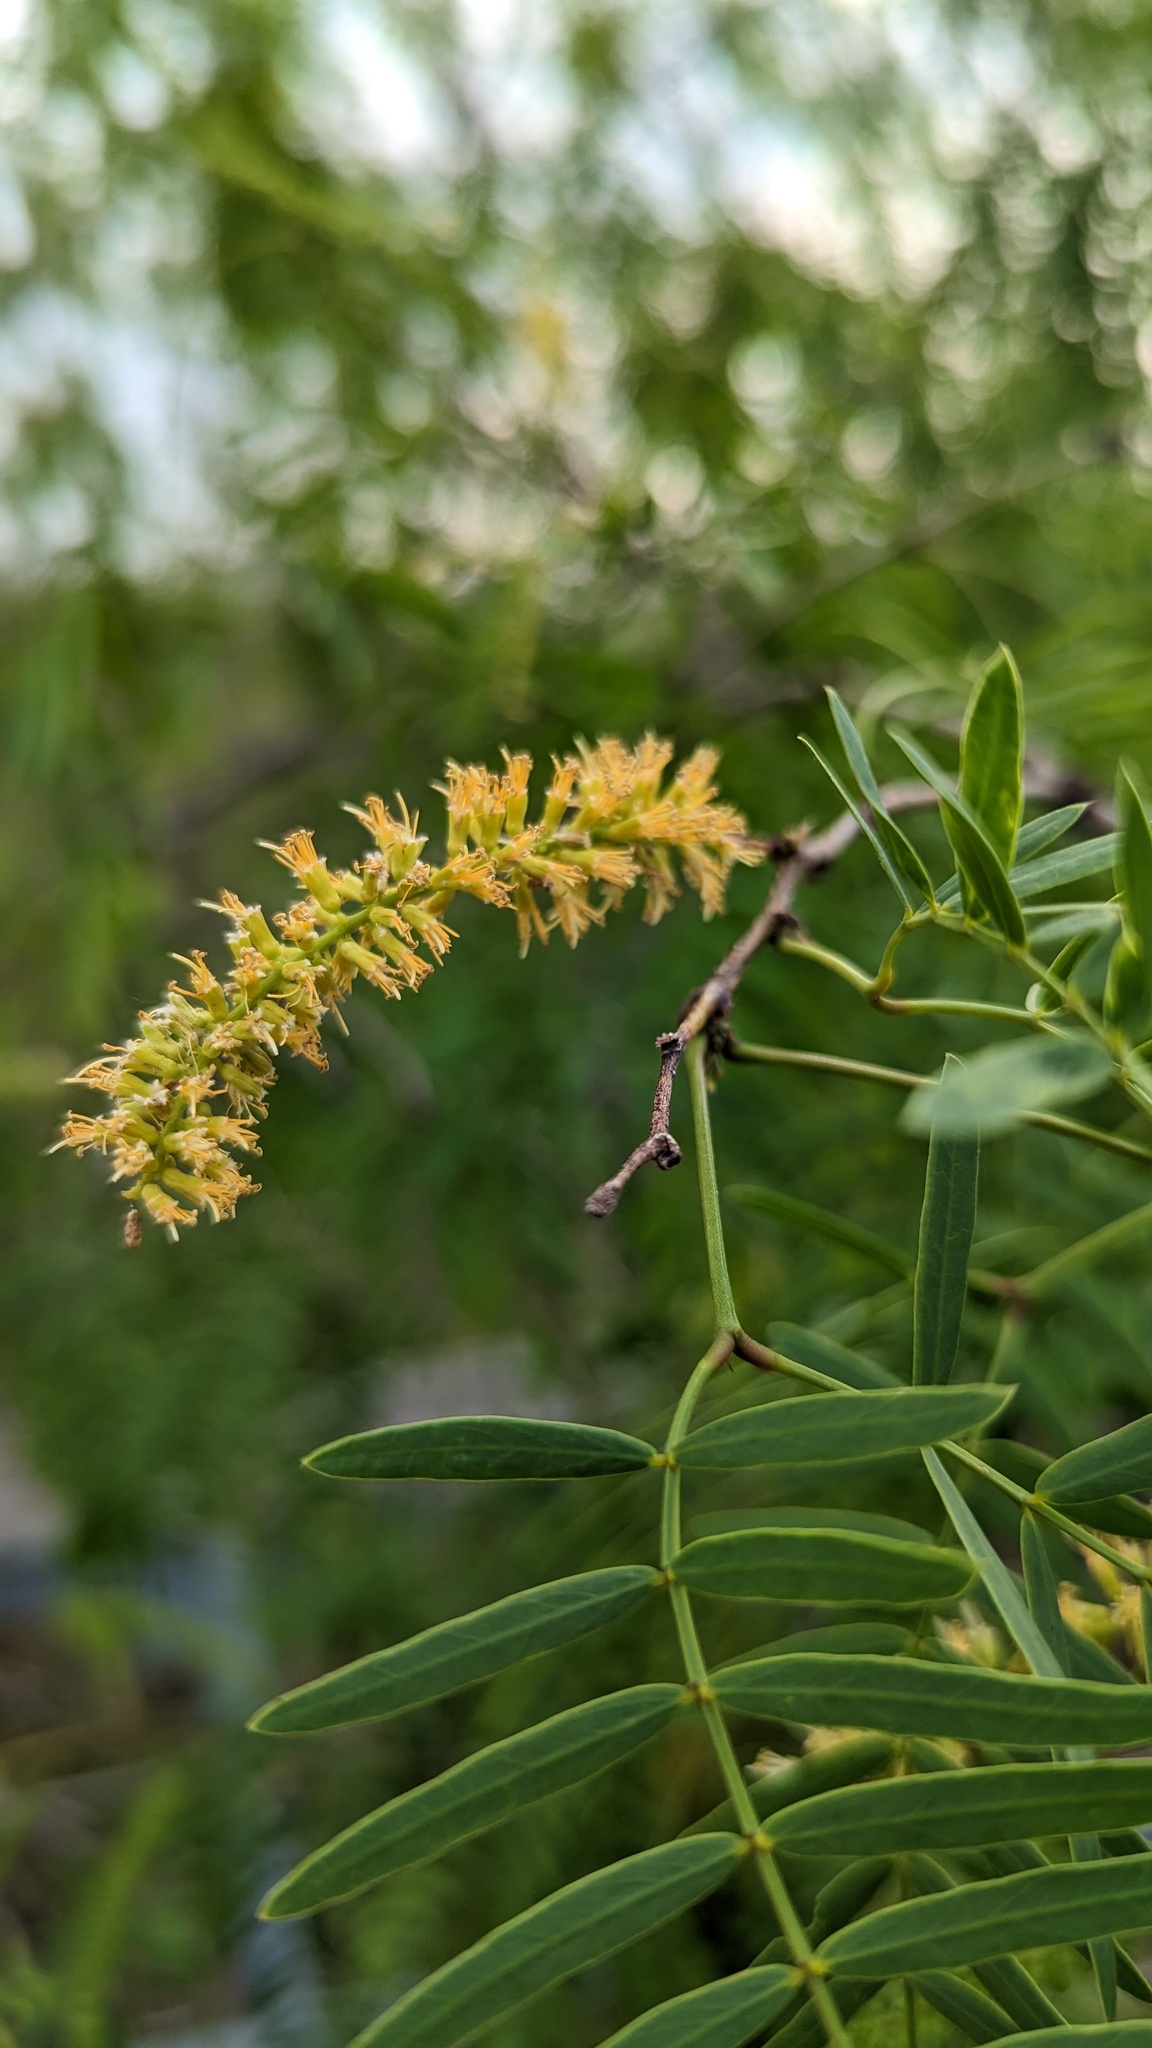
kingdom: Plantae
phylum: Tracheophyta
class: Magnoliopsida
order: Fabales
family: Fabaceae
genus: Prosopis
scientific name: Prosopis glandulosa
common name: Honey mesquite
